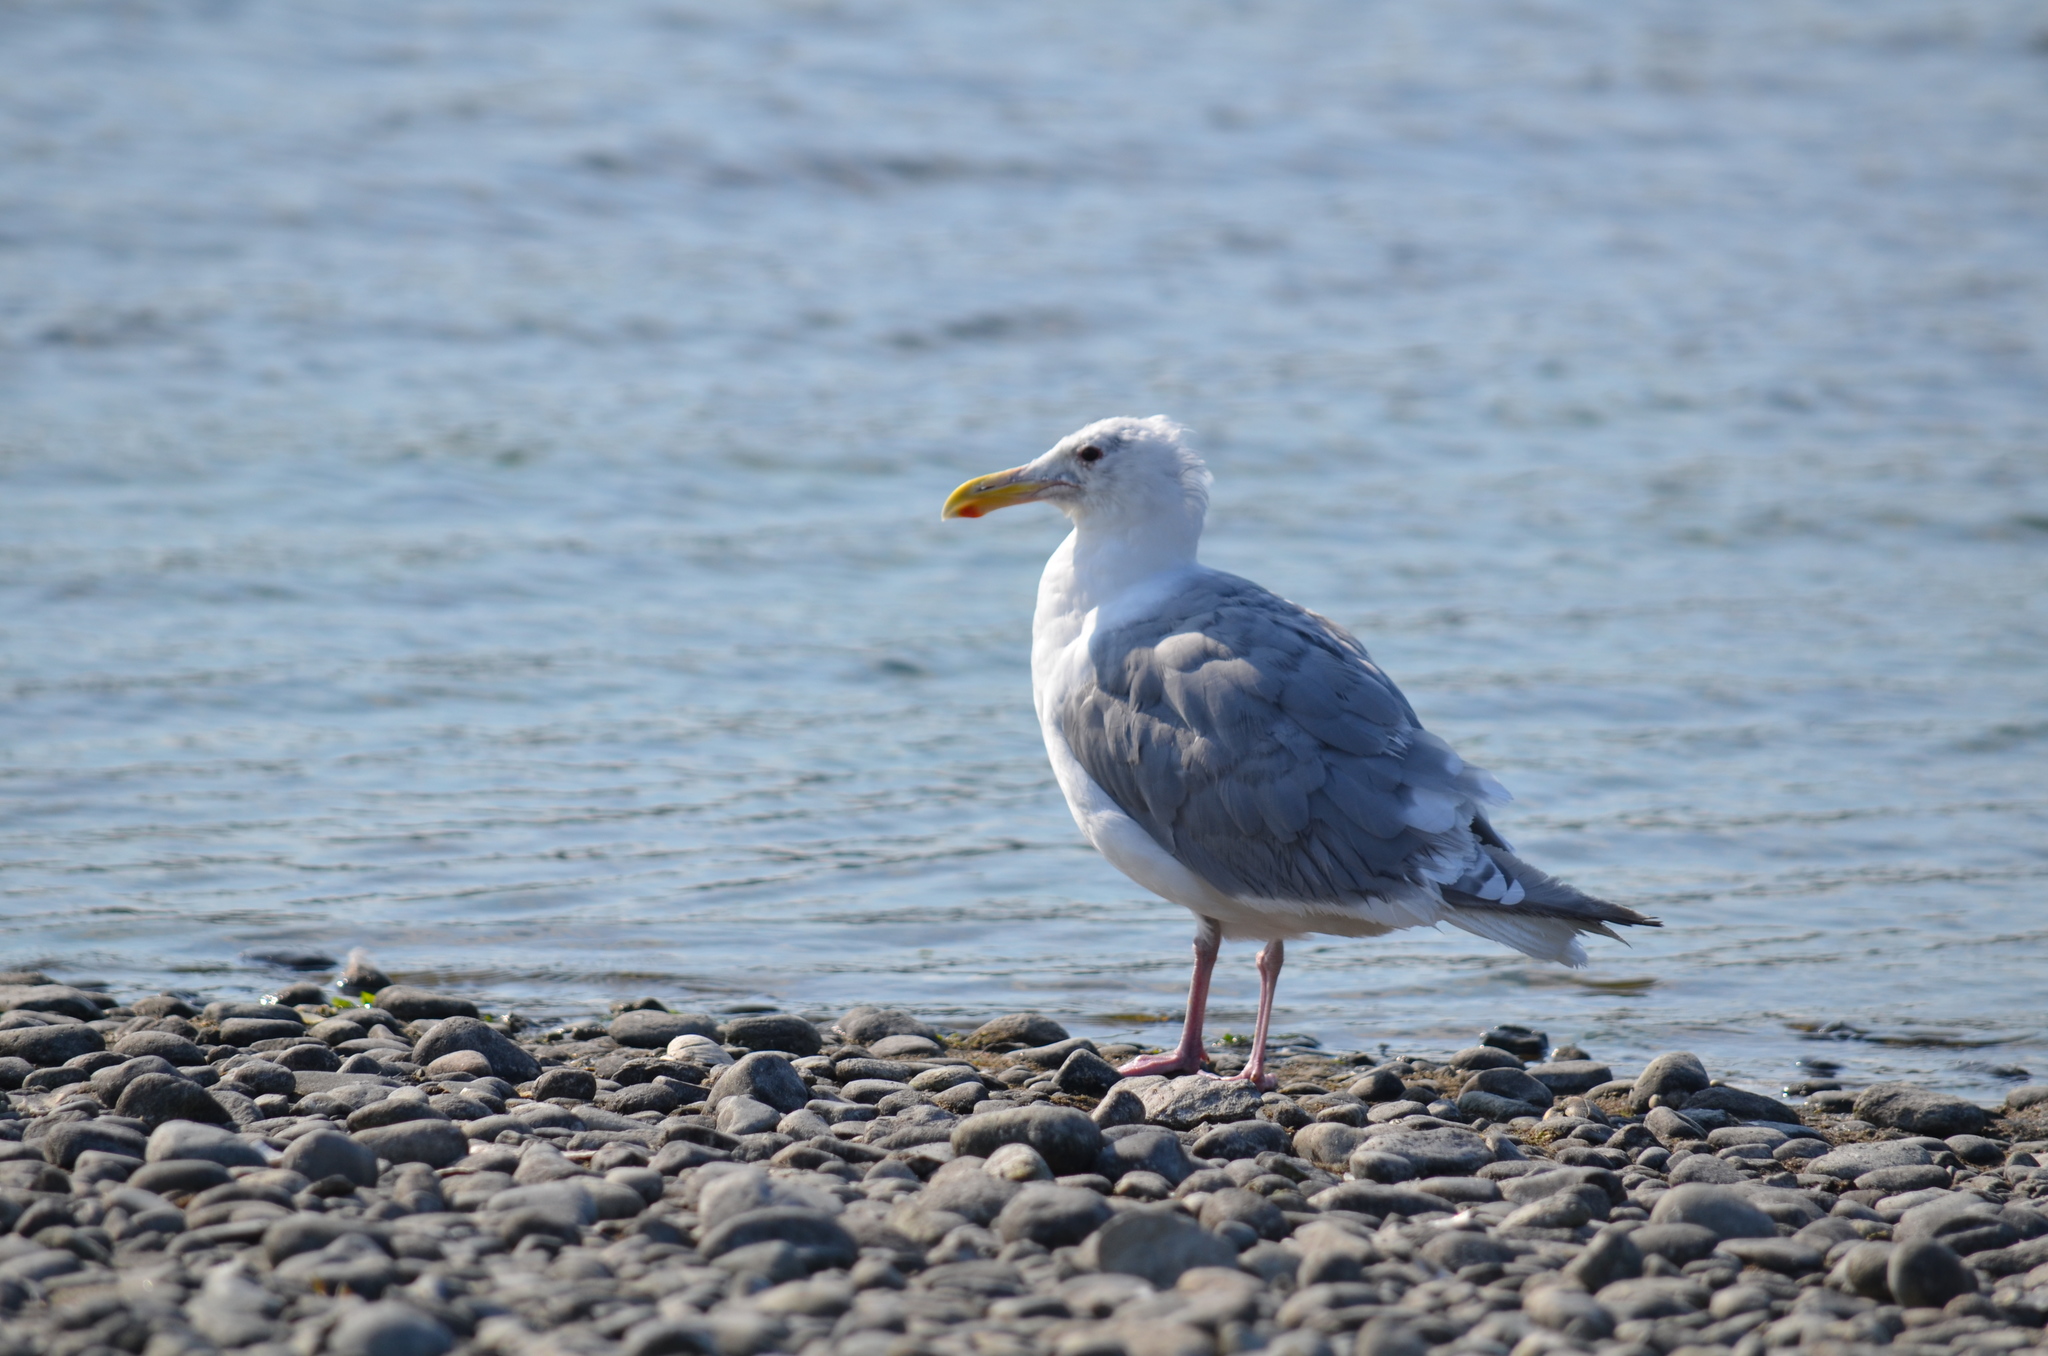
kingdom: Animalia
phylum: Chordata
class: Aves
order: Charadriiformes
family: Laridae
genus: Larus
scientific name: Larus
